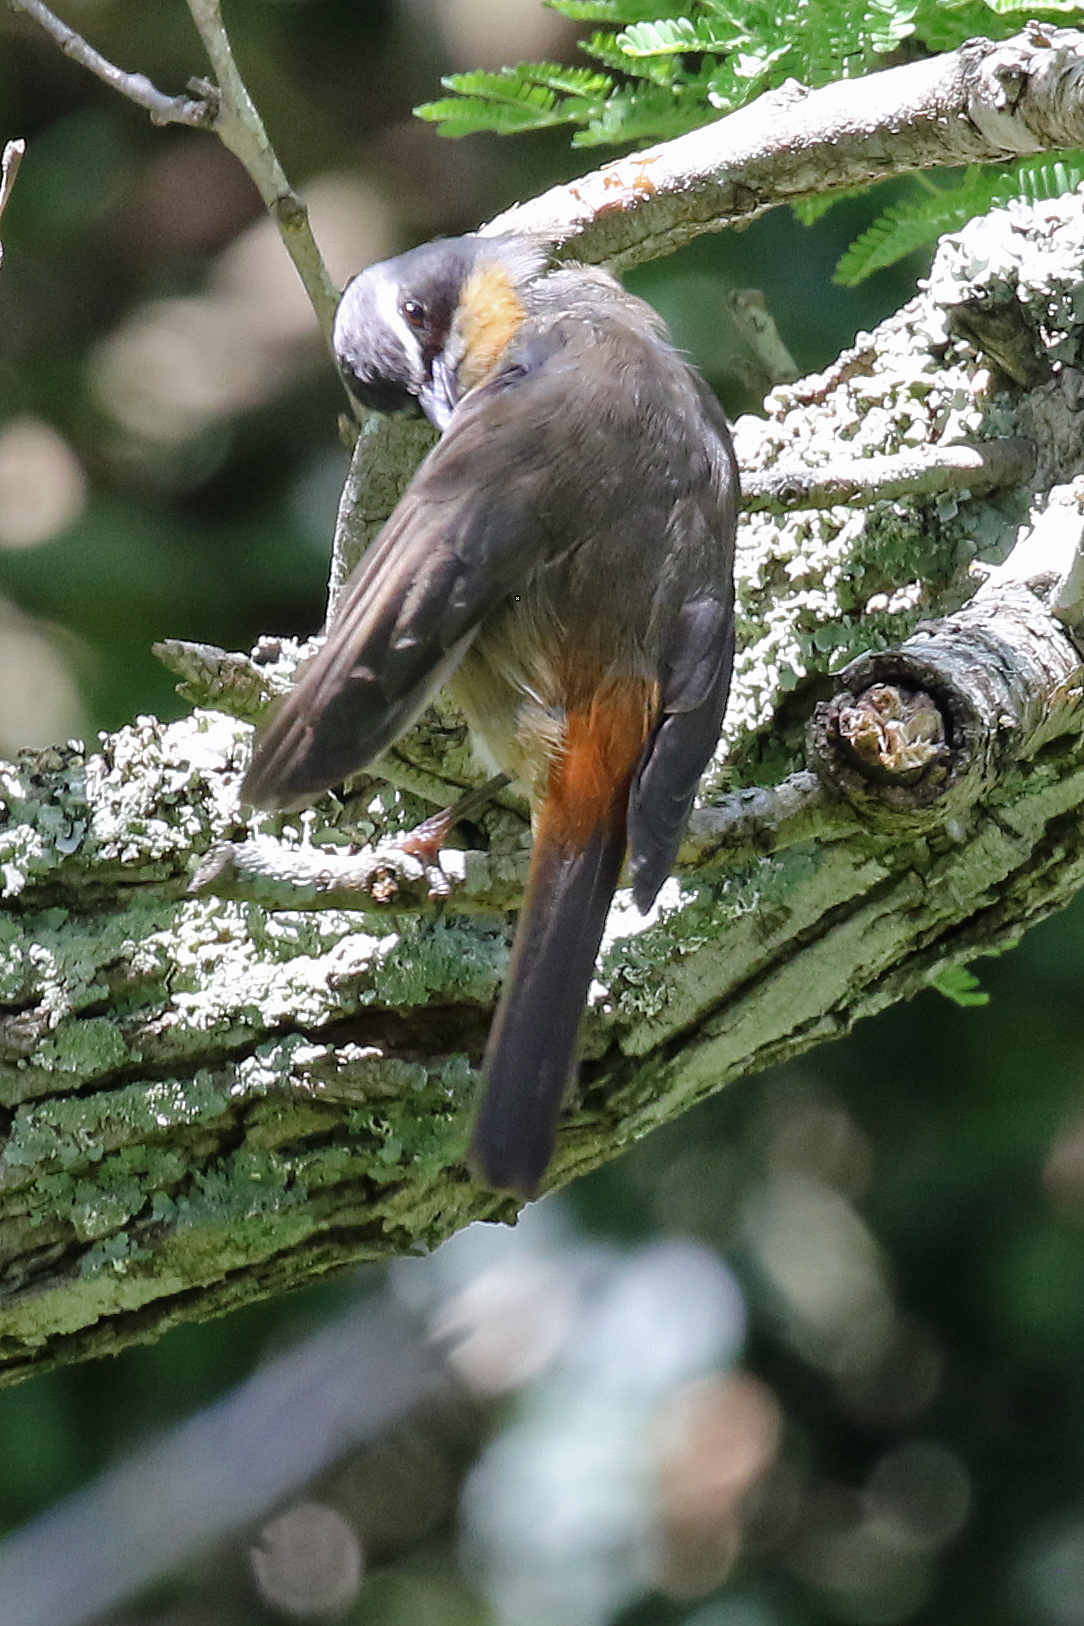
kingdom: Animalia
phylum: Chordata
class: Aves
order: Passeriformes
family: Muscicapidae
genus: Cossypha
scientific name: Cossypha caffra
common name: Cape robin-chat
